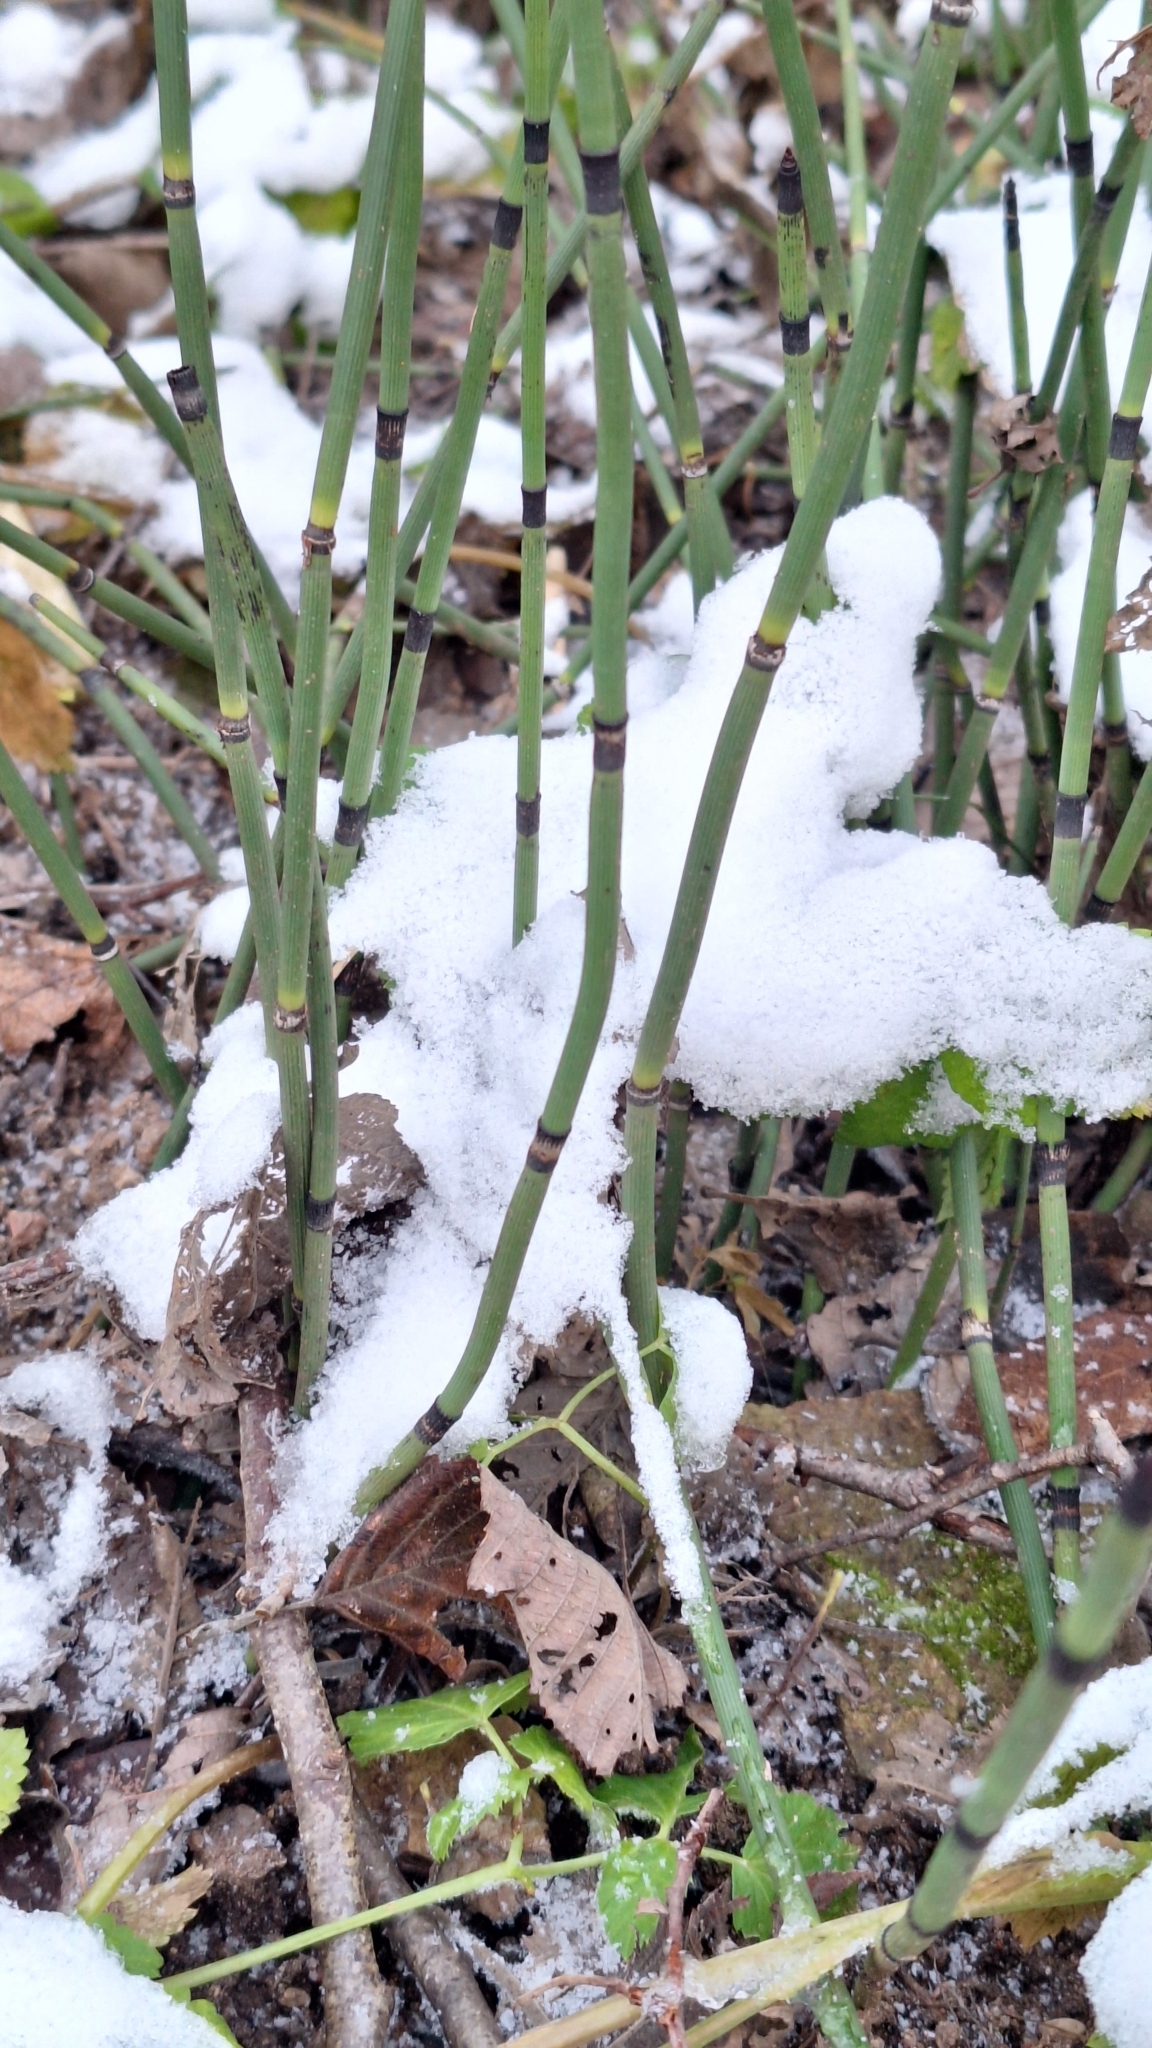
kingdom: Plantae
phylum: Tracheophyta
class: Polypodiopsida
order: Equisetales
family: Equisetaceae
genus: Equisetum
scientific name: Equisetum hyemale
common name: Rough horsetail
